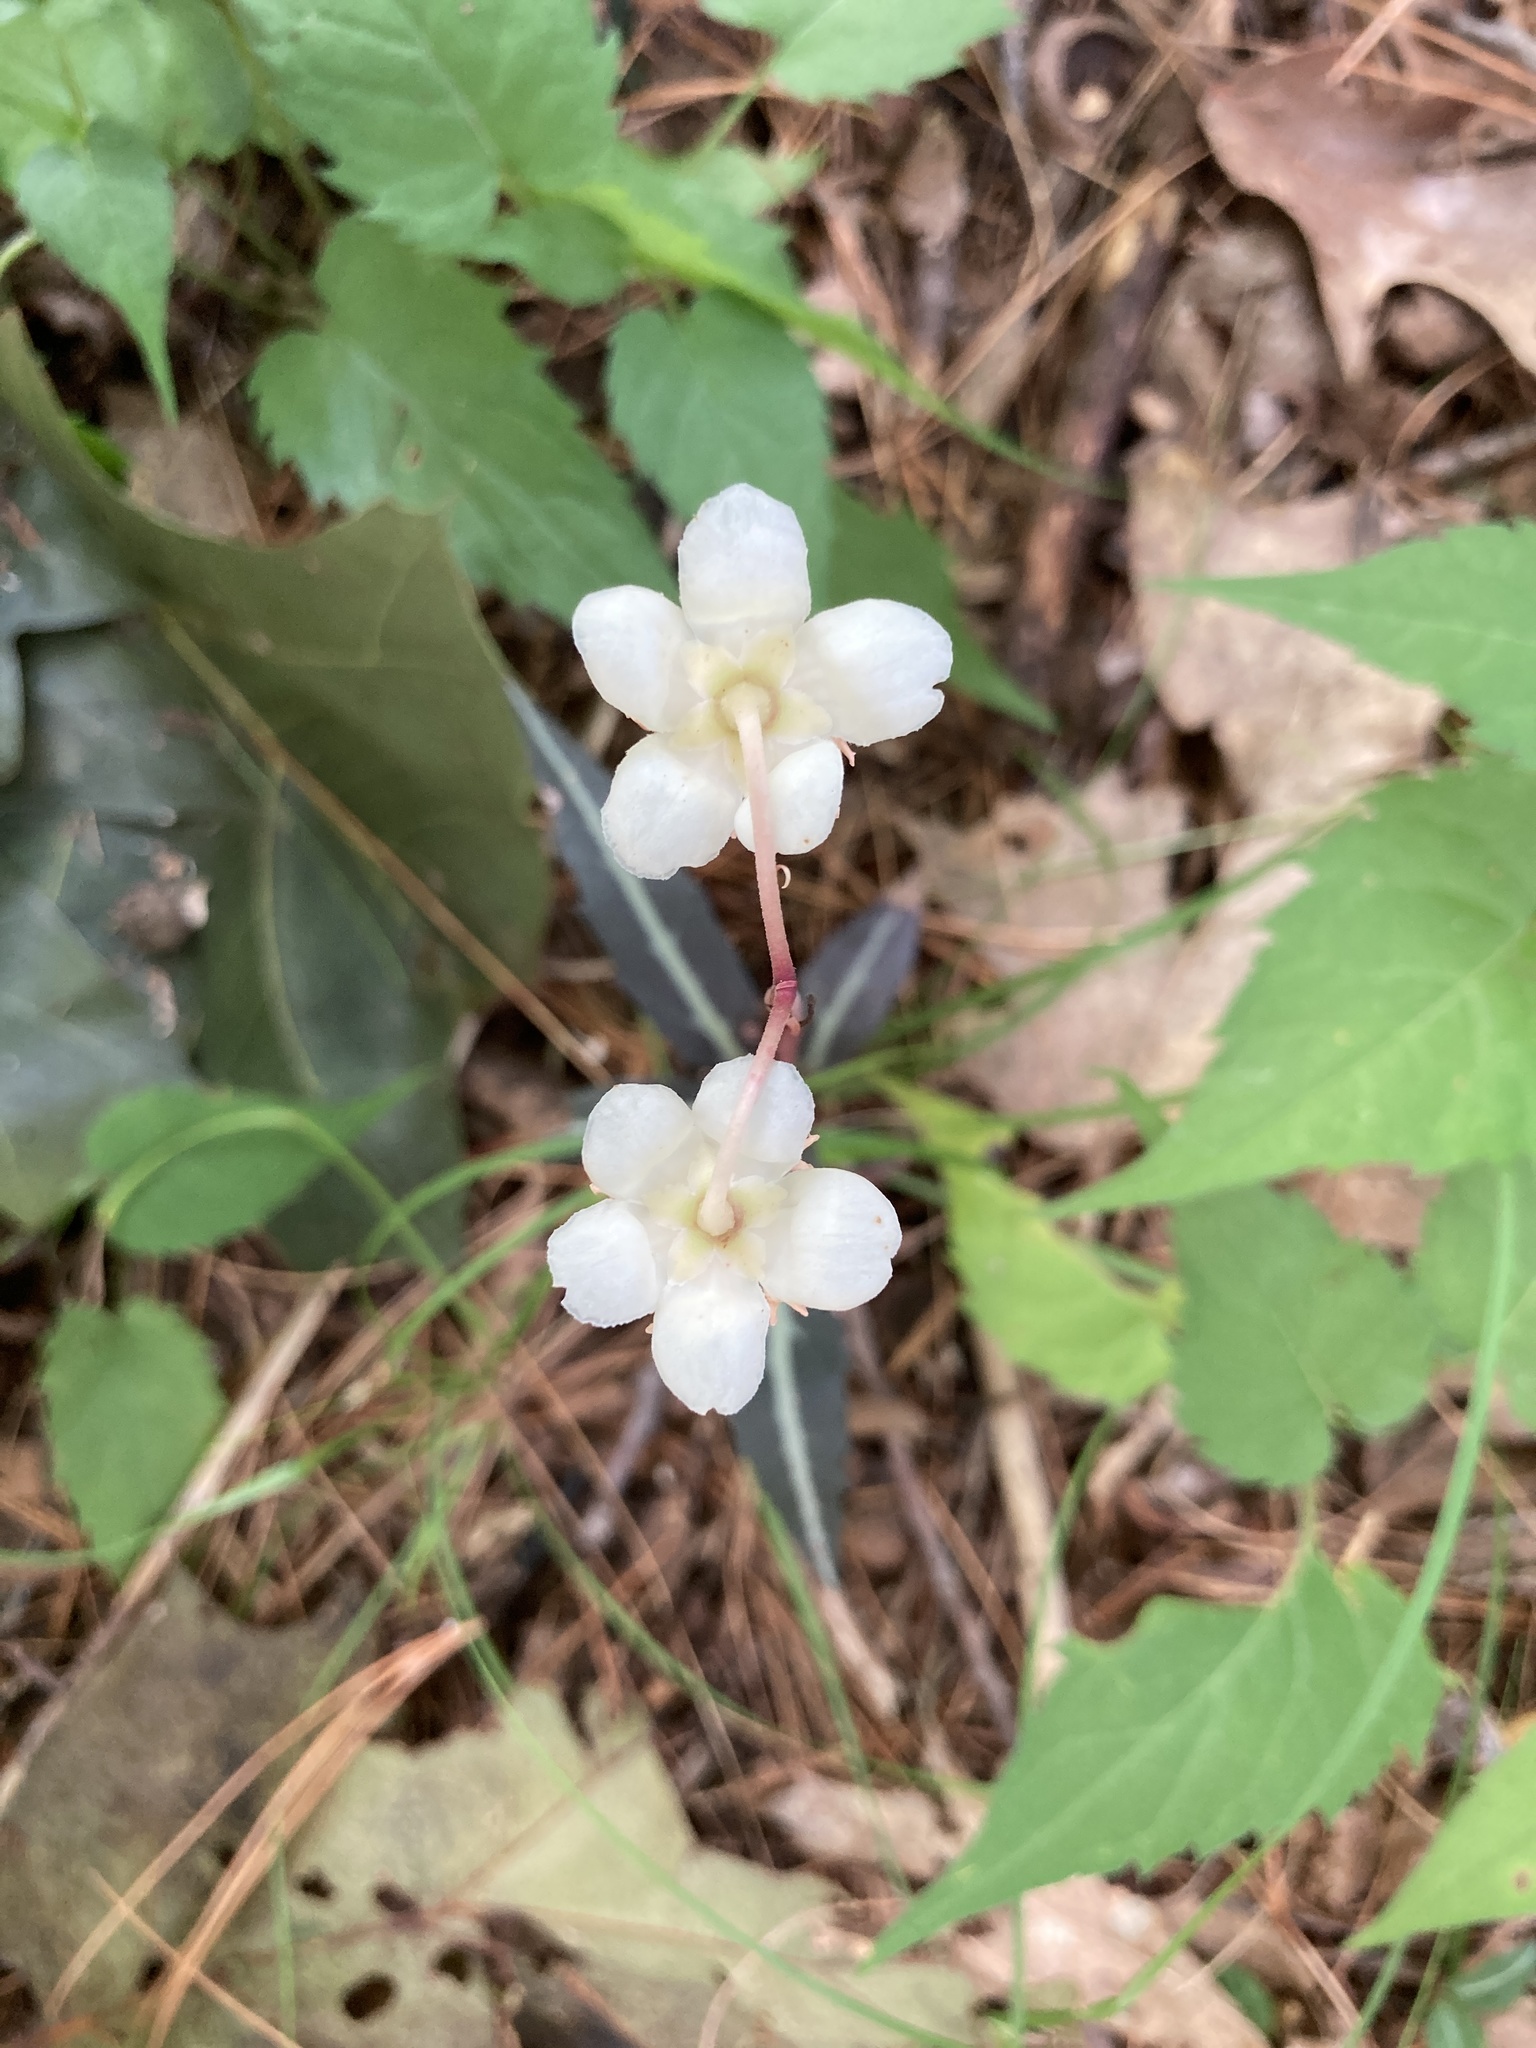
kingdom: Plantae
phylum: Tracheophyta
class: Magnoliopsida
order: Ericales
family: Ericaceae
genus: Chimaphila
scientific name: Chimaphila maculata
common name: Spotted pipsissewa
